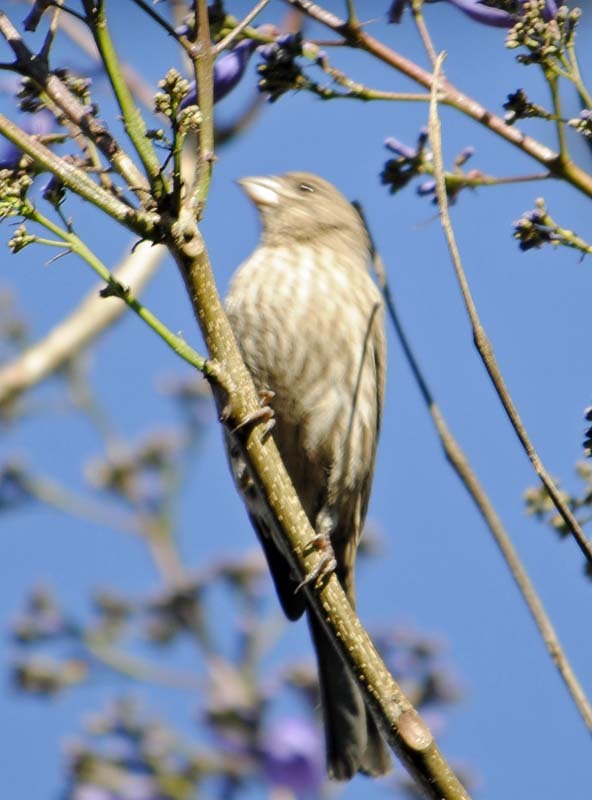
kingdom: Animalia
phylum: Chordata
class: Aves
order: Passeriformes
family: Fringillidae
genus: Haemorhous
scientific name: Haemorhous mexicanus
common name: House finch
